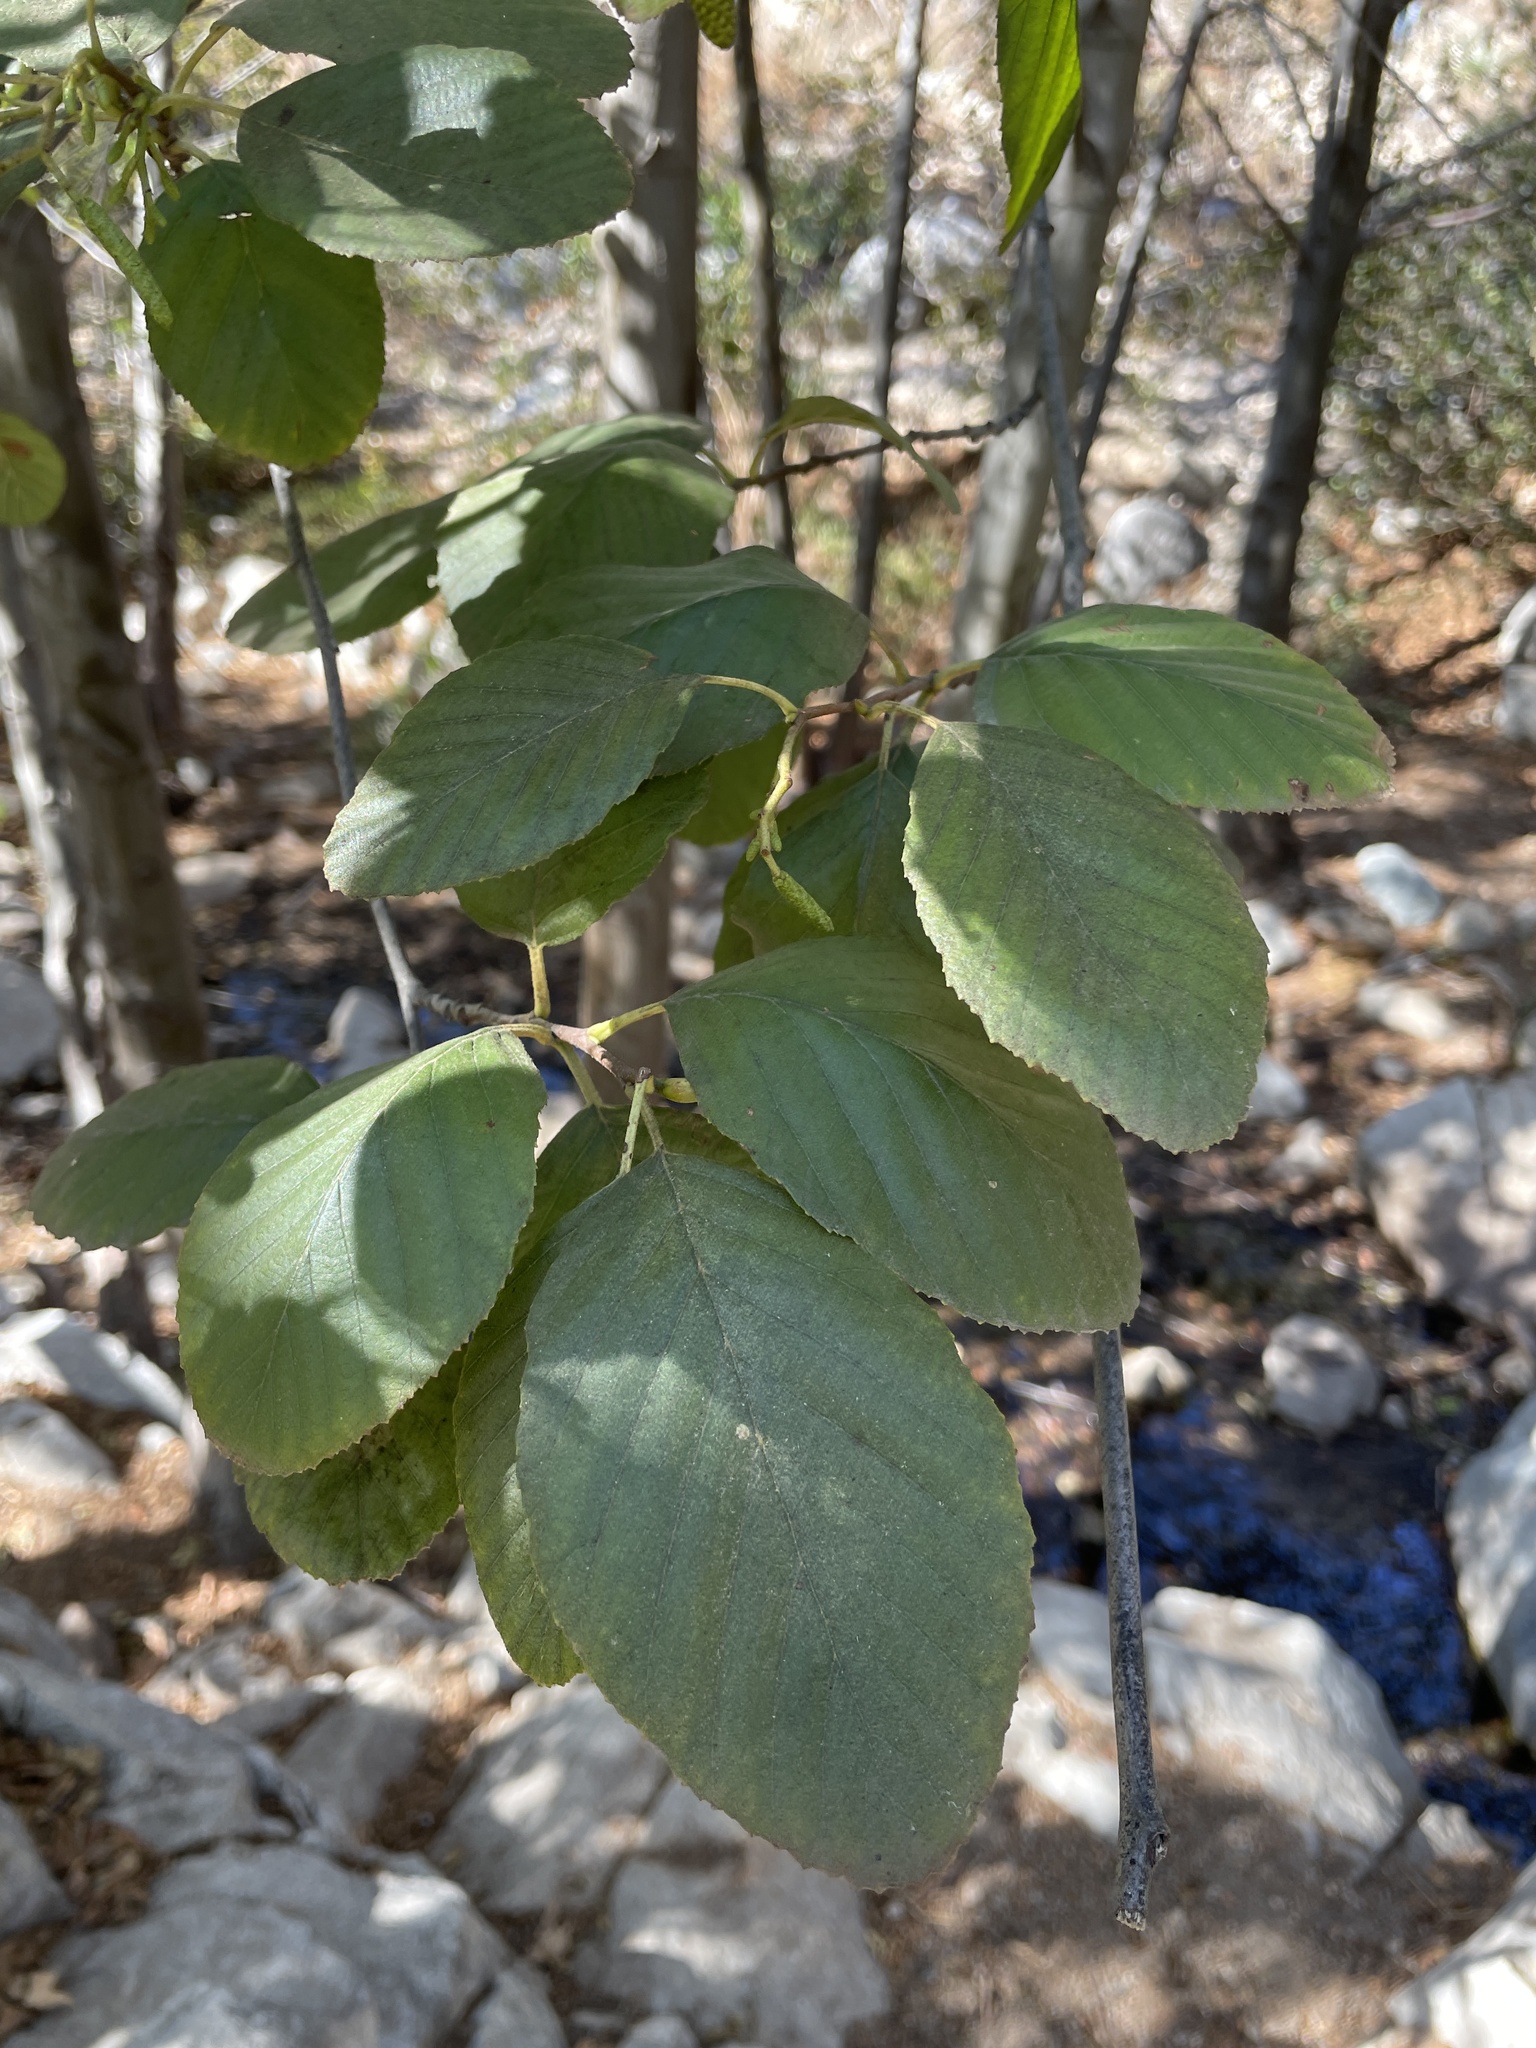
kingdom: Plantae
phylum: Tracheophyta
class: Magnoliopsida
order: Fagales
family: Betulaceae
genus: Alnus
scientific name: Alnus rhombifolia
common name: California alder
